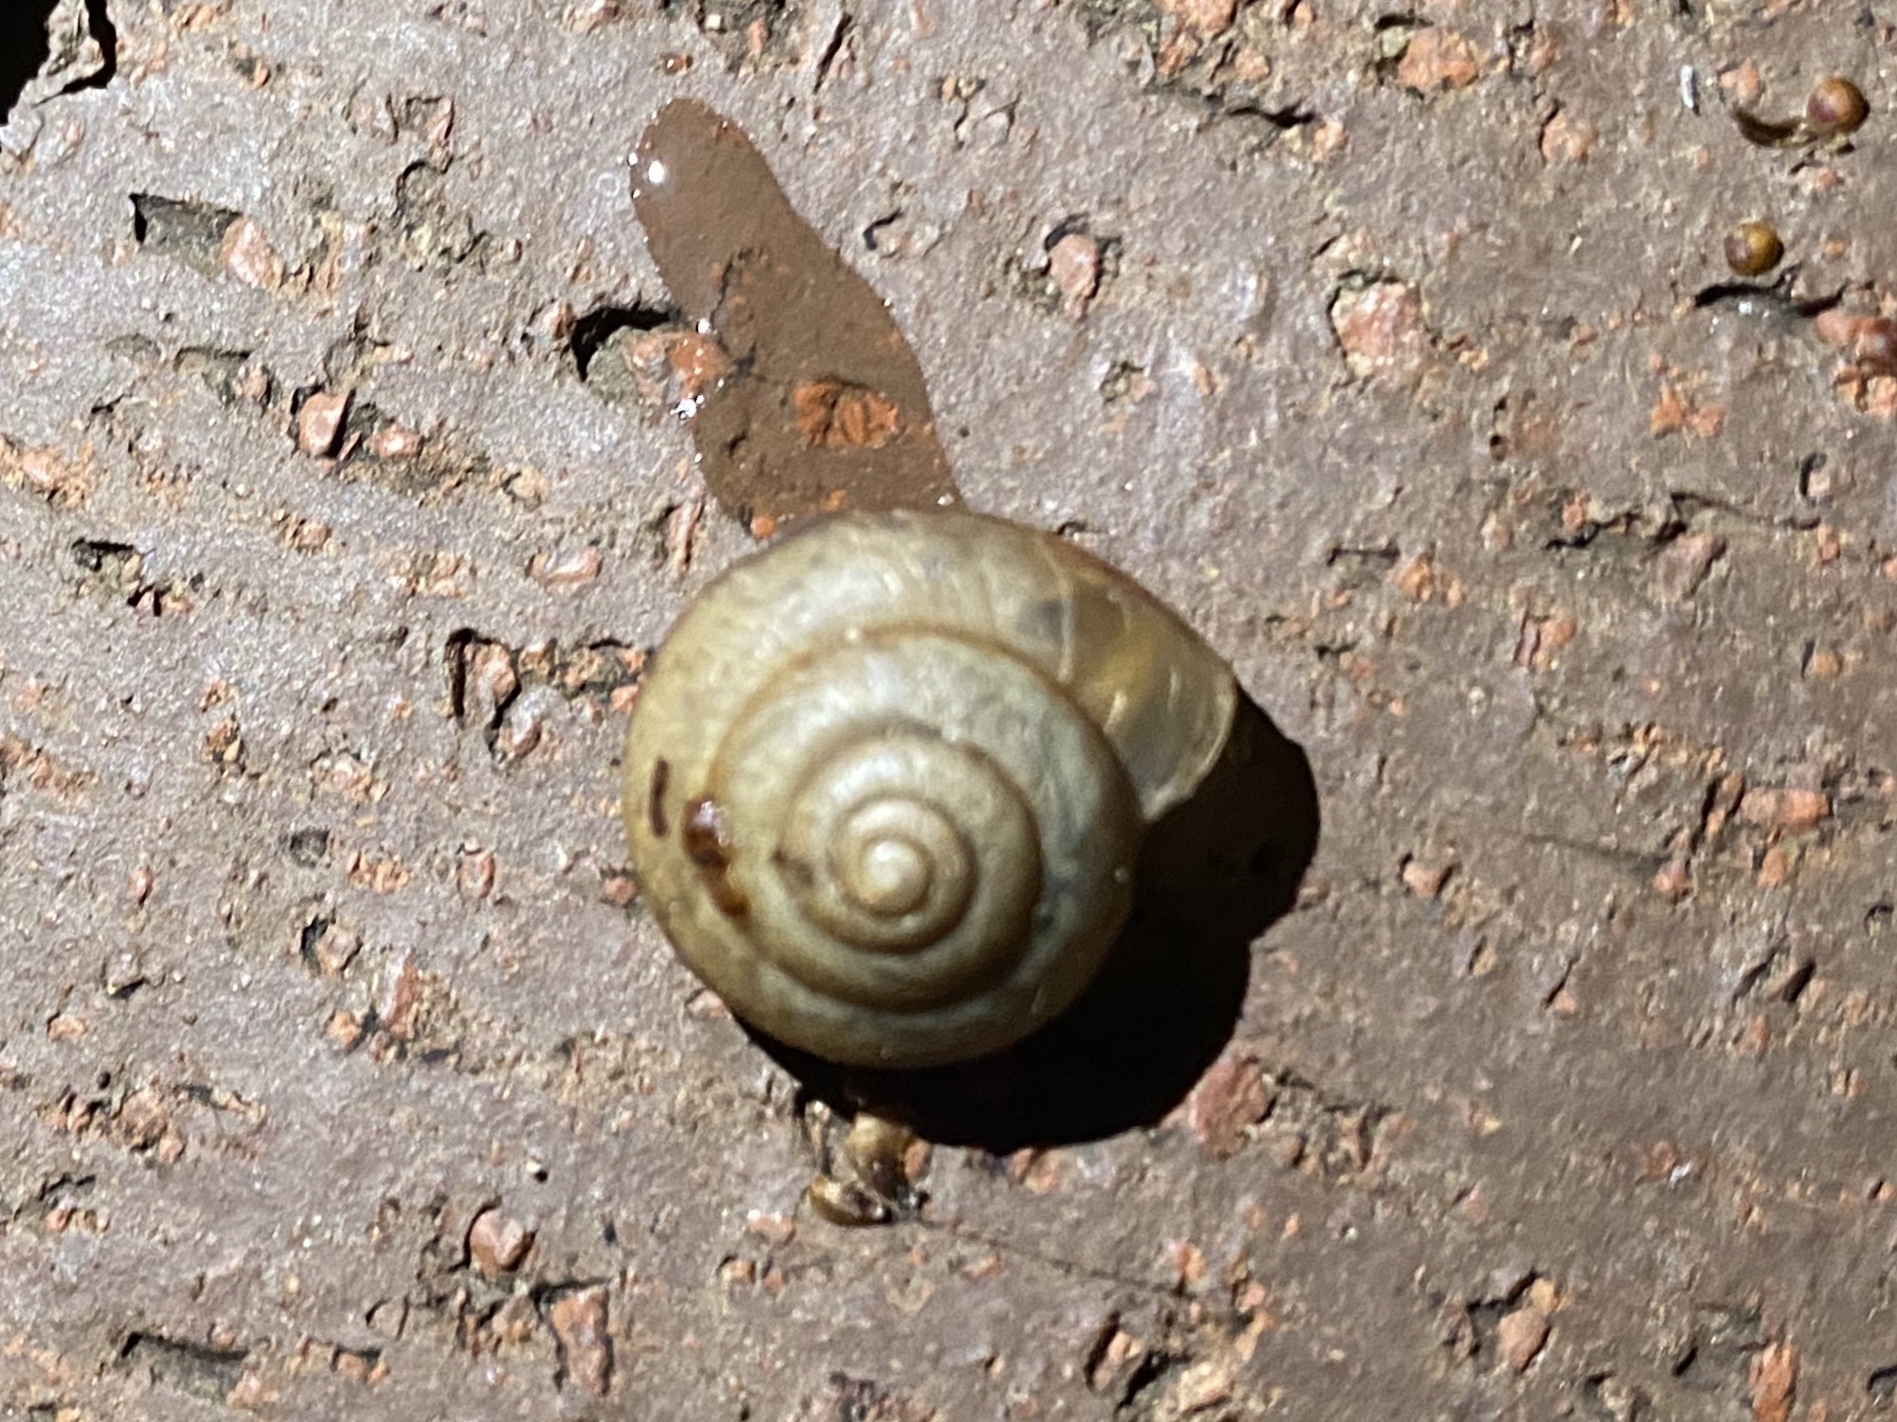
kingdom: Animalia
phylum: Mollusca
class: Gastropoda
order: Stylommatophora
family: Camaenidae
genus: Bradybaena
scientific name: Bradybaena similaris
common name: Asian trampsnail
